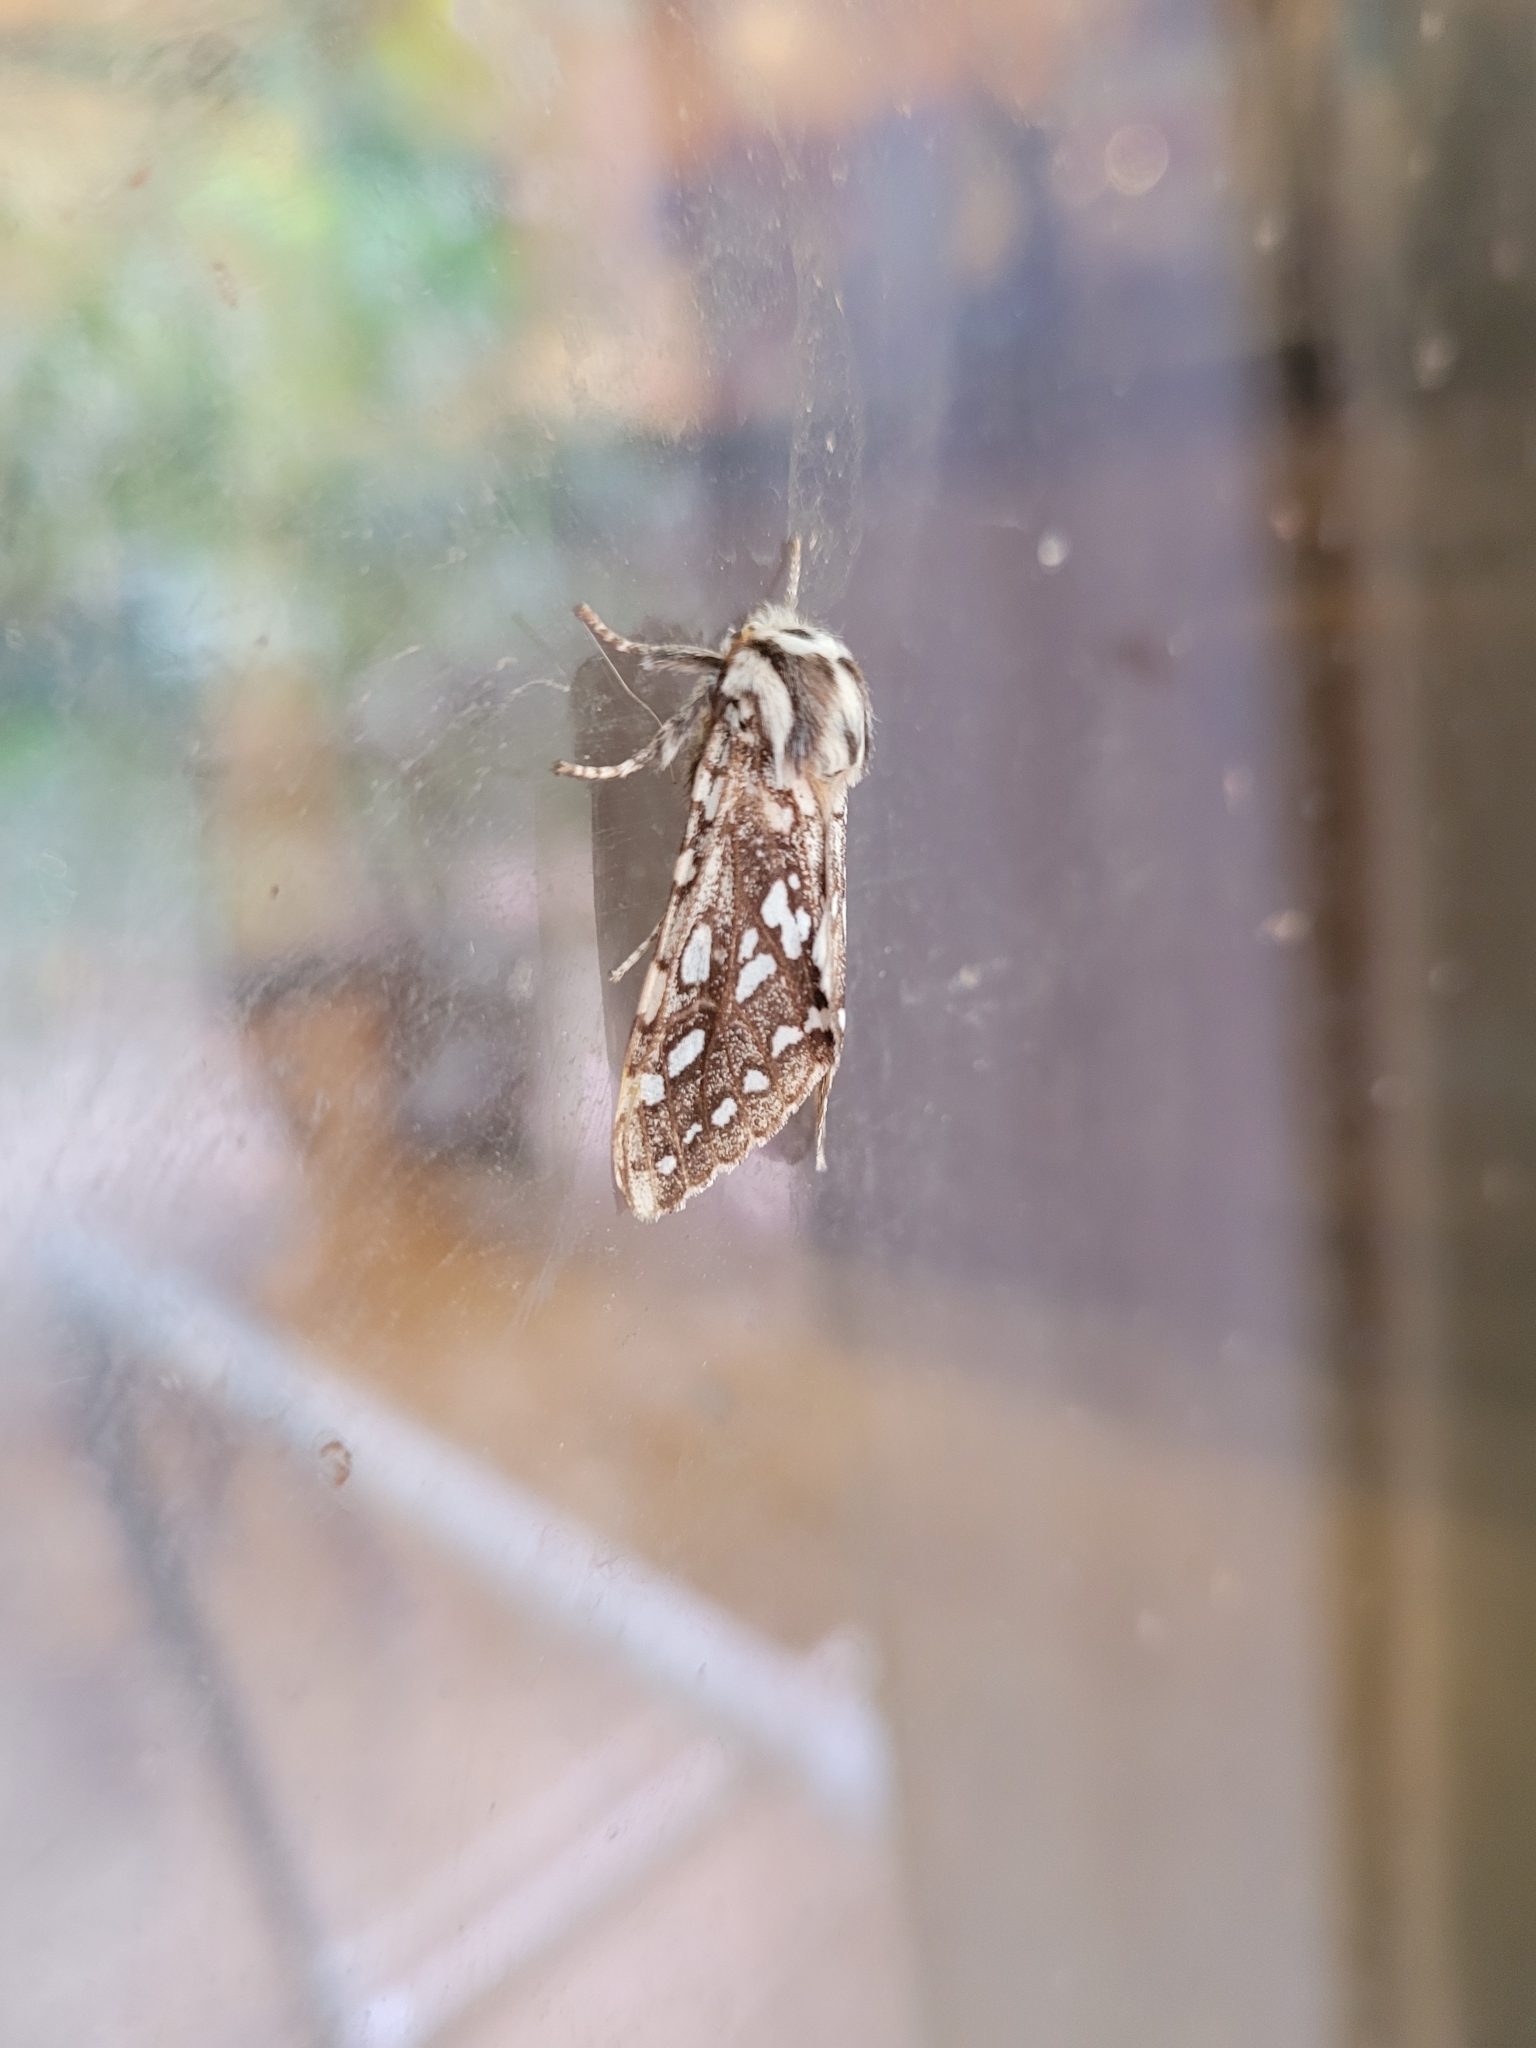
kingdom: Animalia
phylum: Arthropoda
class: Insecta
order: Lepidoptera
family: Erebidae
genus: Lophocampa
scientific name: Lophocampa argentata
